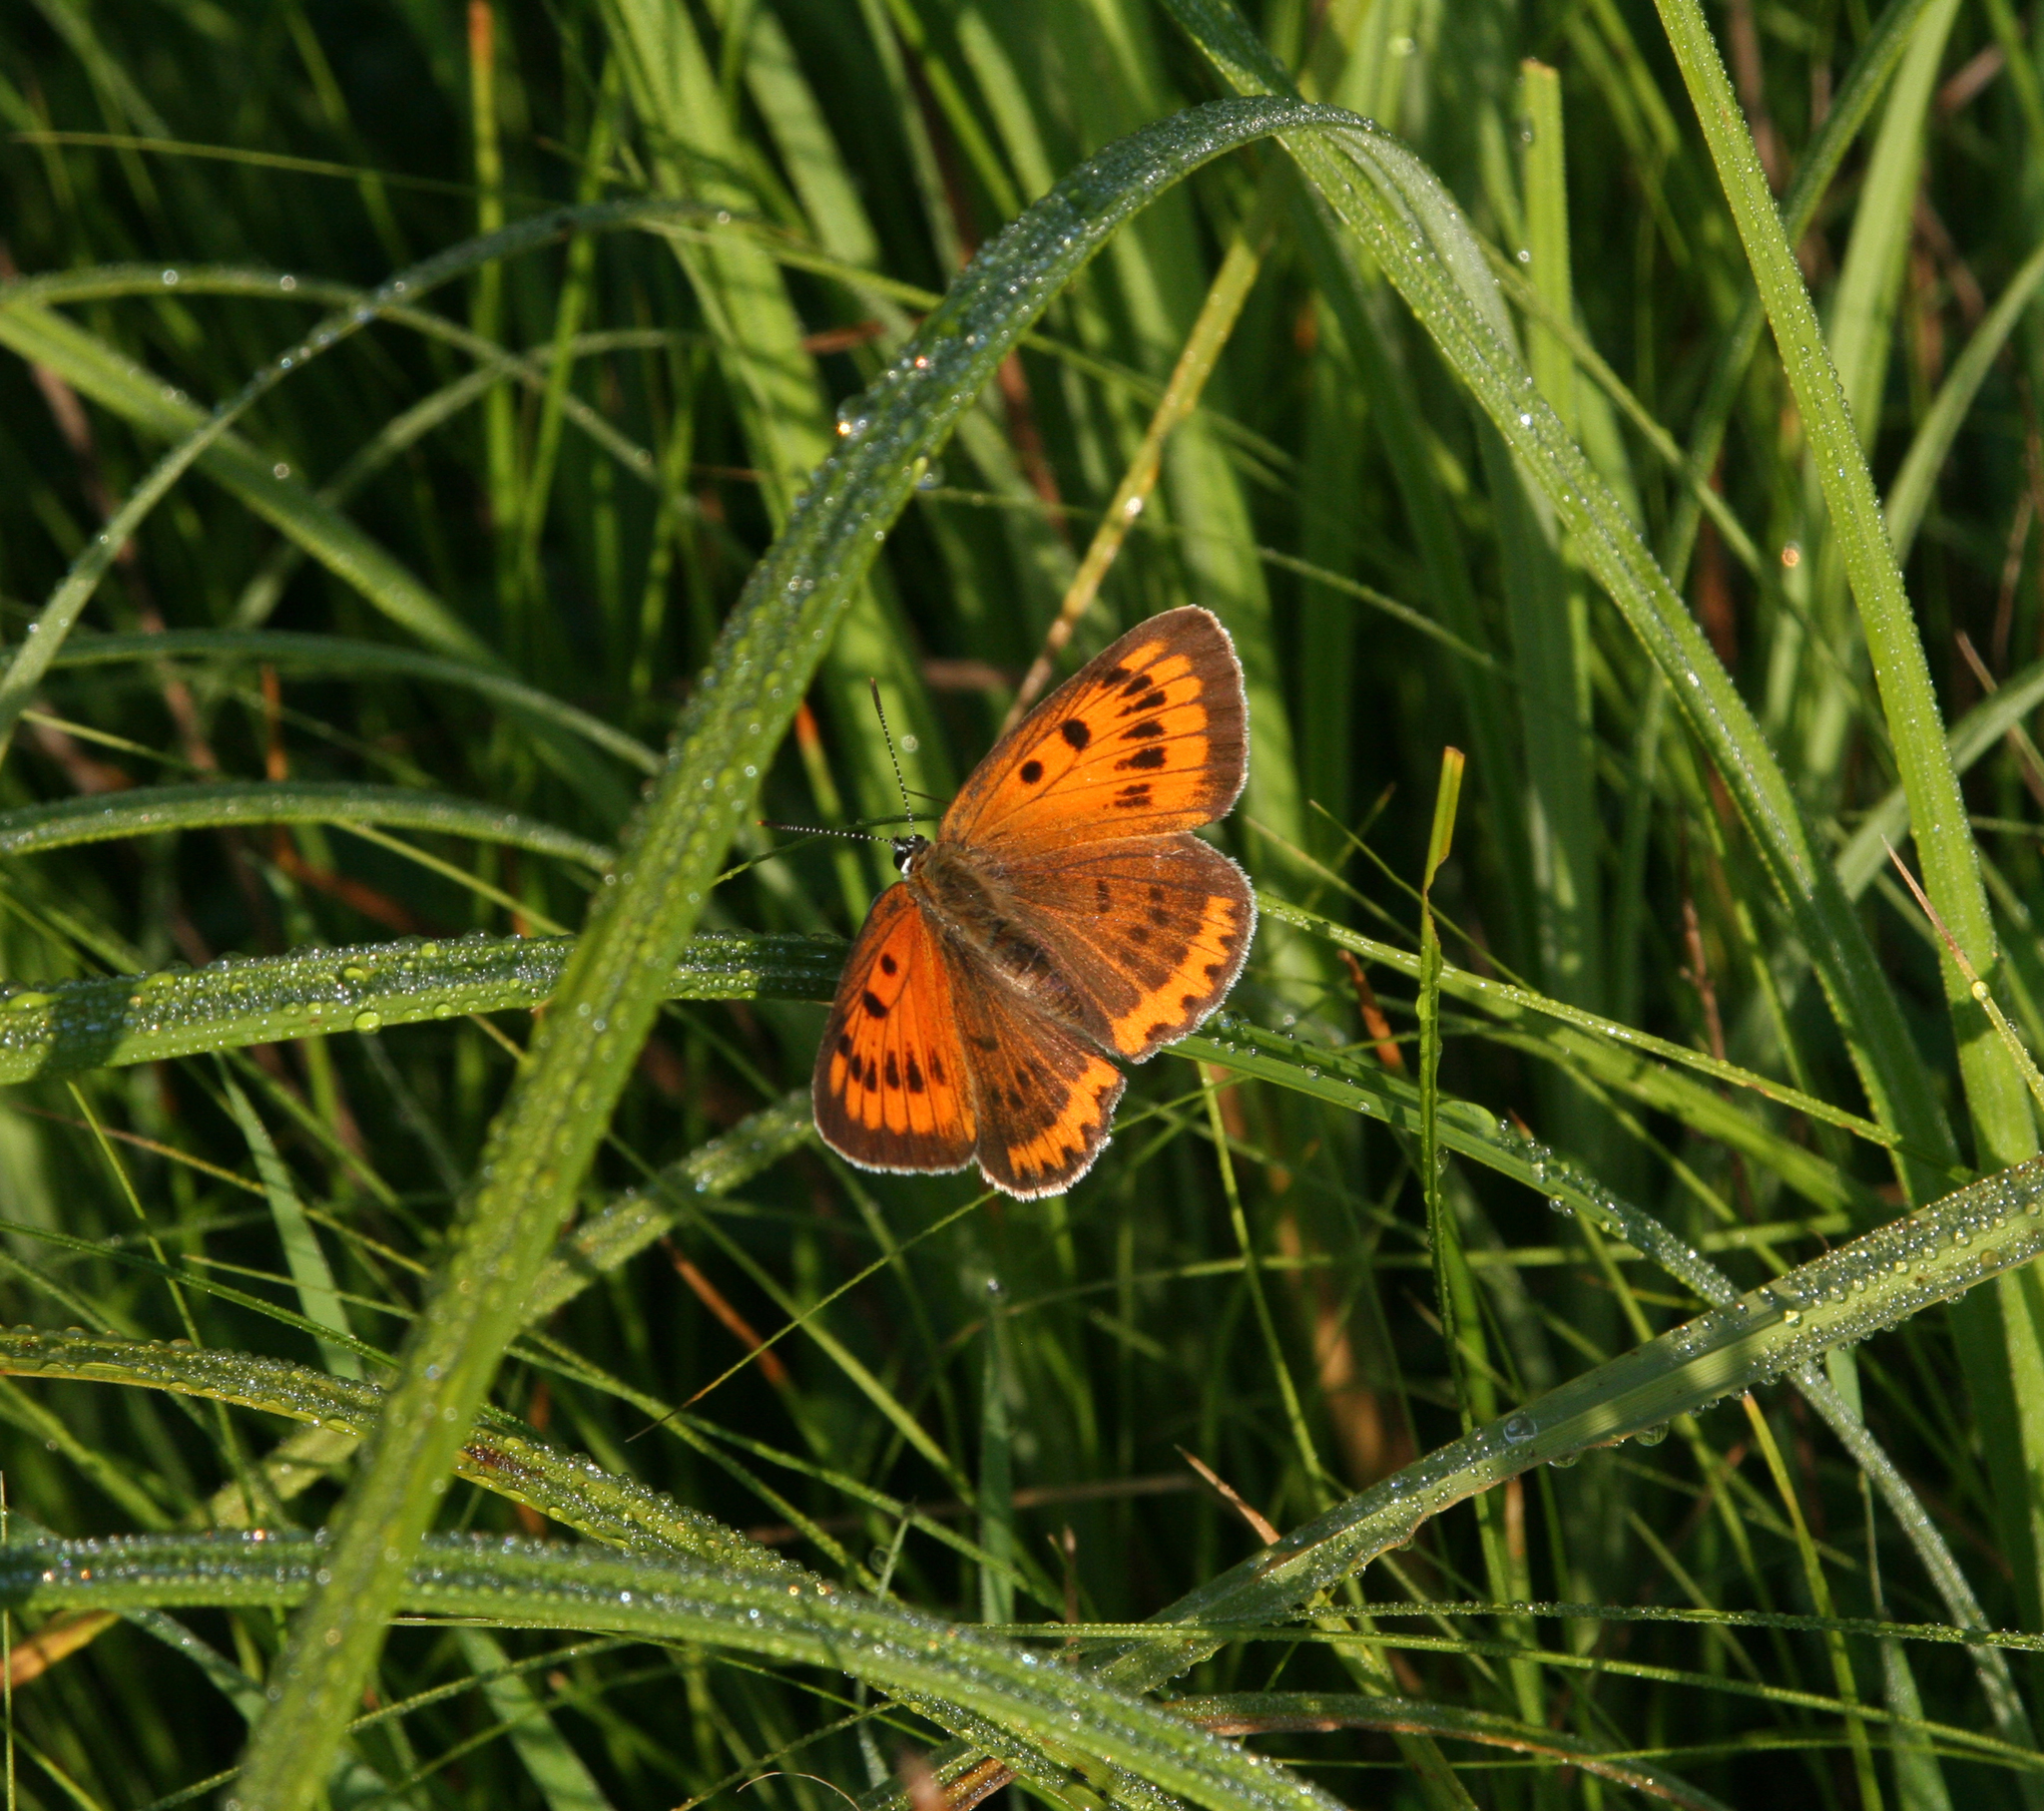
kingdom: Animalia
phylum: Arthropoda
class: Insecta
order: Lepidoptera
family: Lycaenidae
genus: Lycaena
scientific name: Lycaena dispar
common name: Large copper
